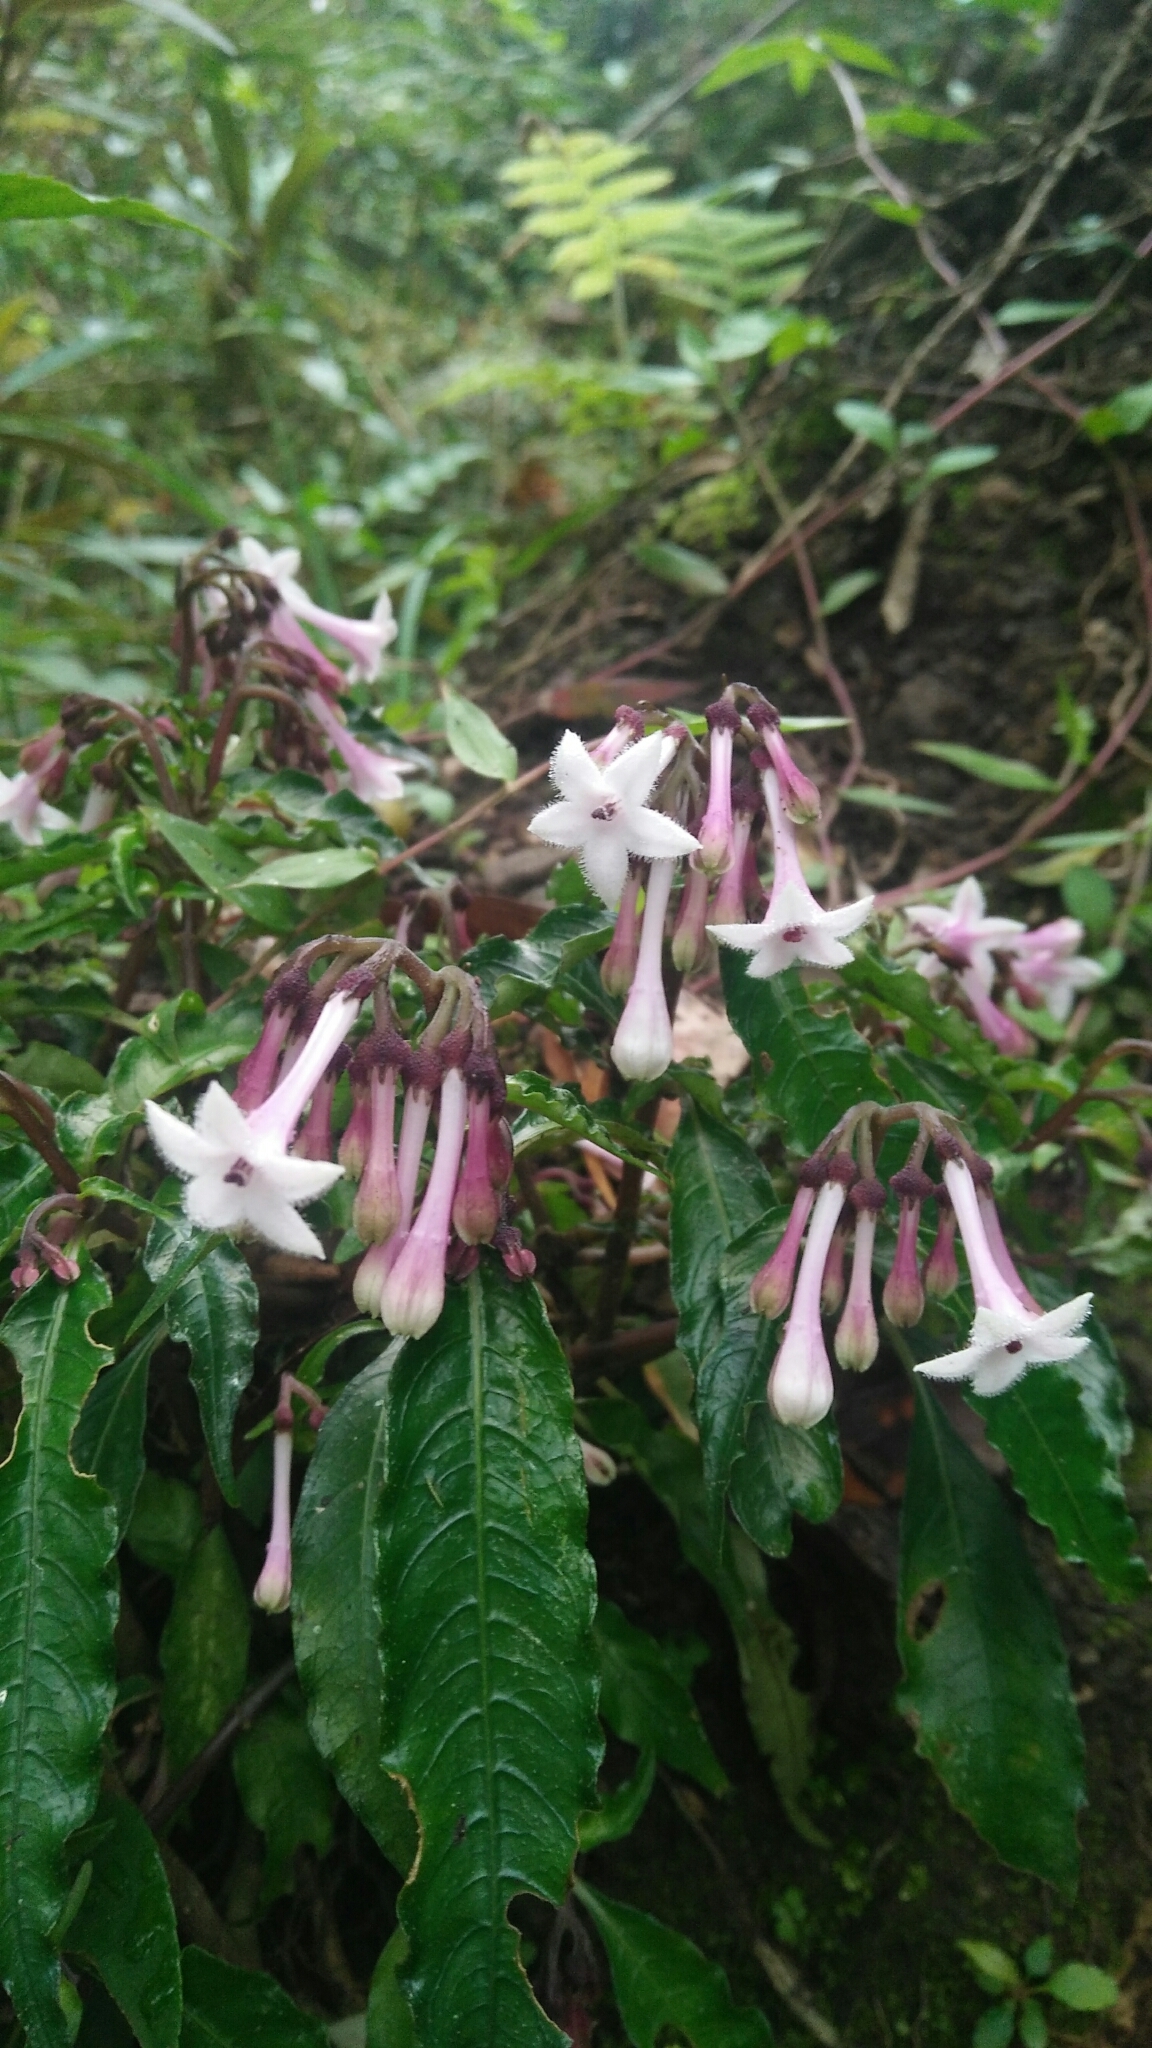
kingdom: Plantae
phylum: Tracheophyta
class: Magnoliopsida
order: Gentianales
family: Rubiaceae
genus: Ophiorrhiza
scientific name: Ophiorrhiza hayatana
